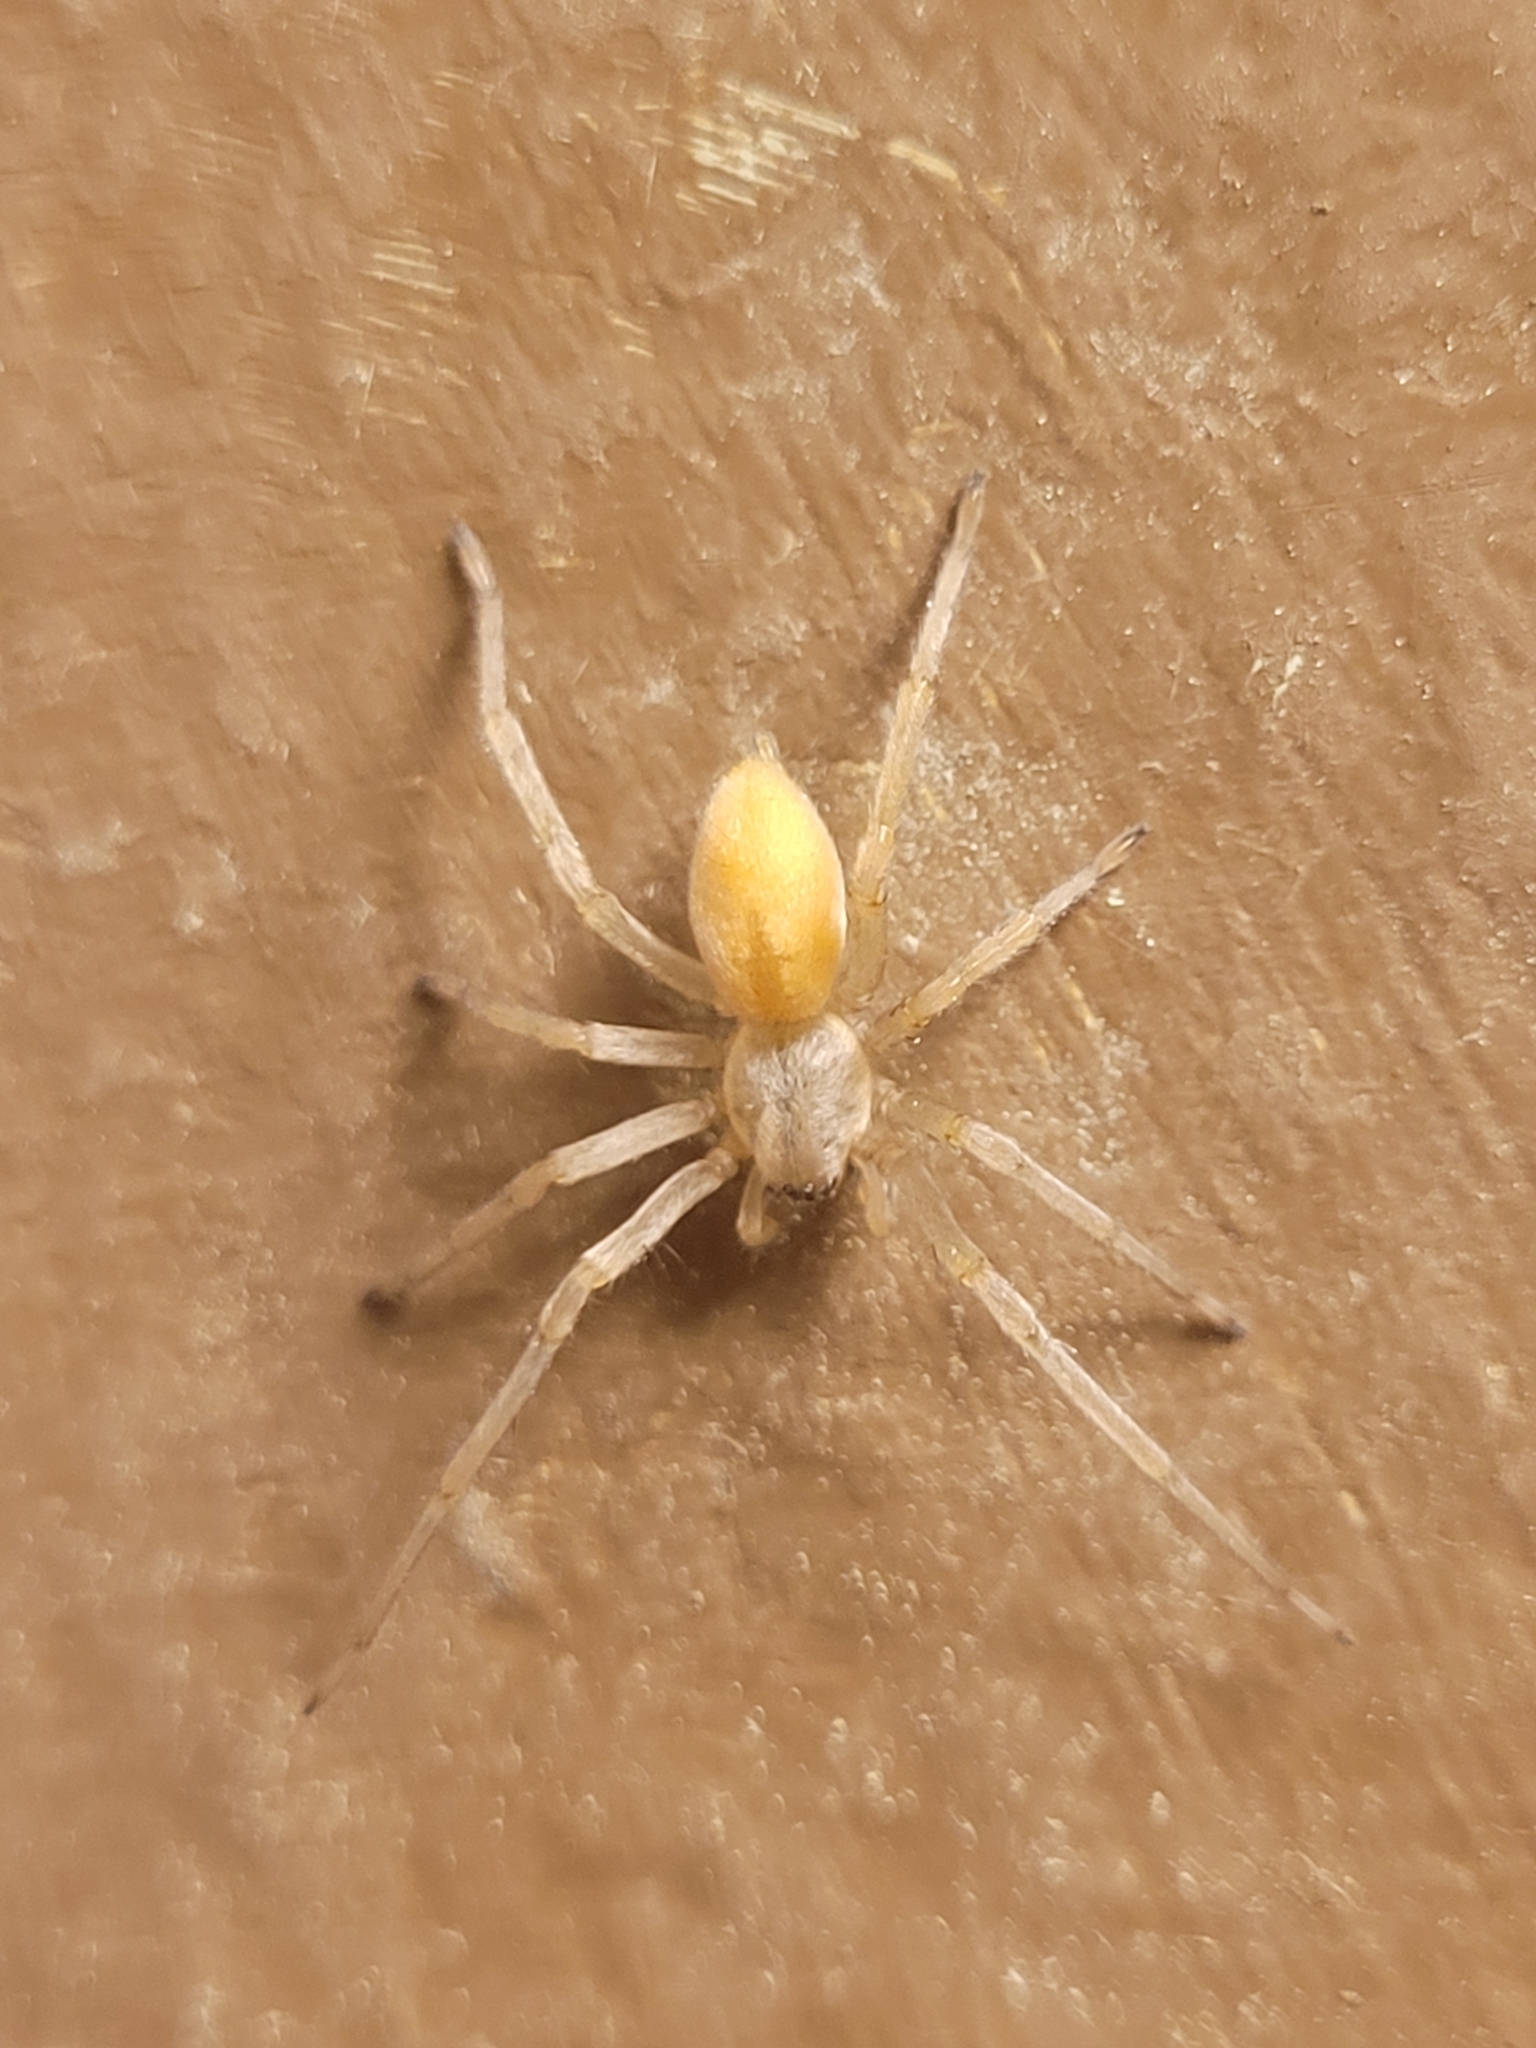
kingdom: Animalia
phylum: Arthropoda
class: Arachnida
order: Araneae
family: Cheiracanthiidae
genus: Cheiracanthium
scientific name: Cheiracanthium
